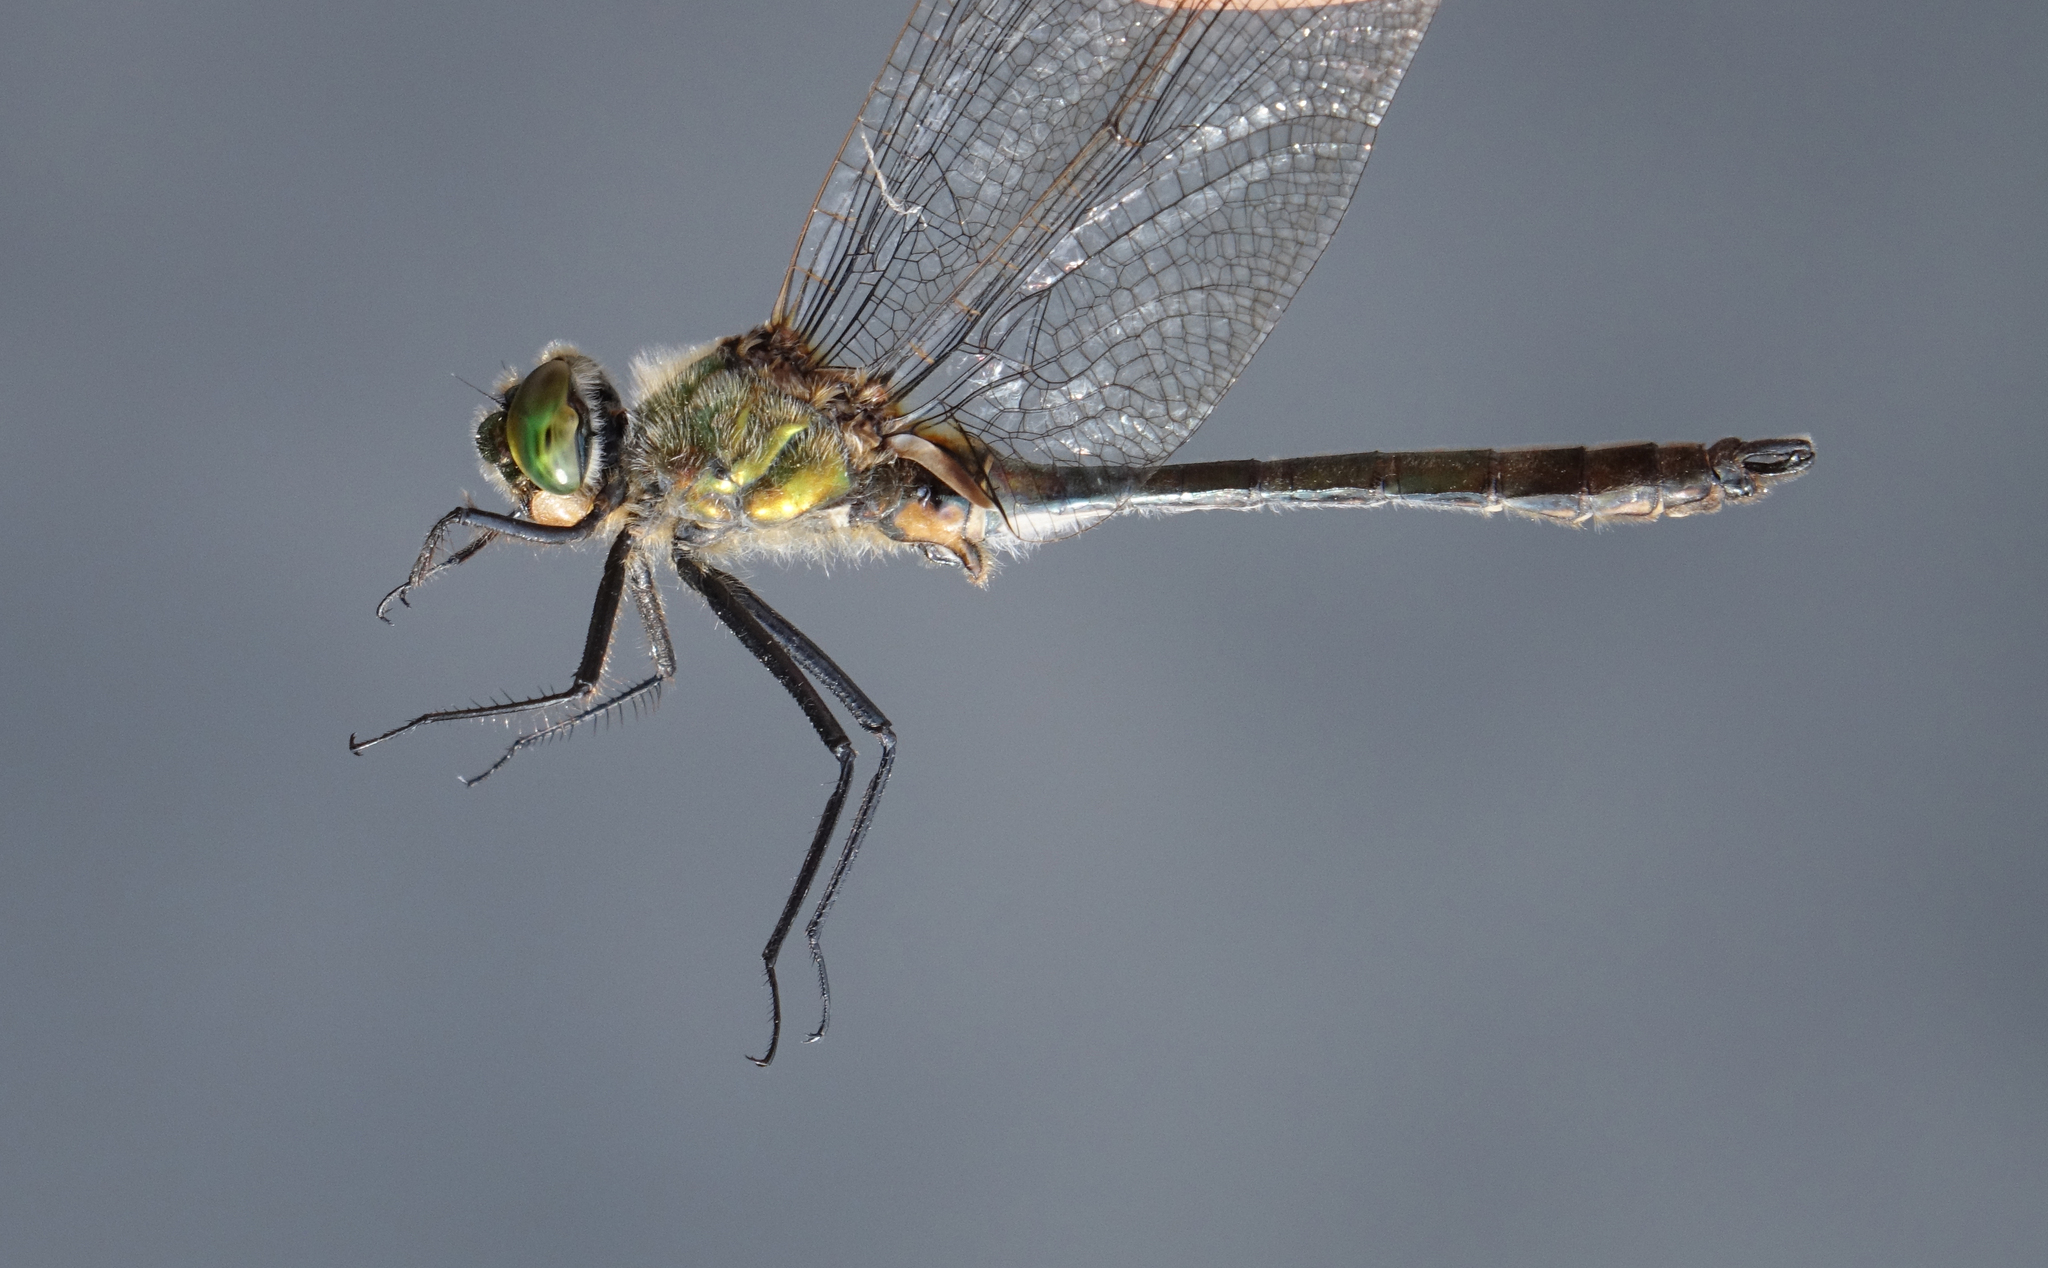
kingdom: Animalia
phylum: Arthropoda
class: Insecta
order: Odonata
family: Corduliidae
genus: Cordulia
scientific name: Cordulia aenea
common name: Downy emerald
